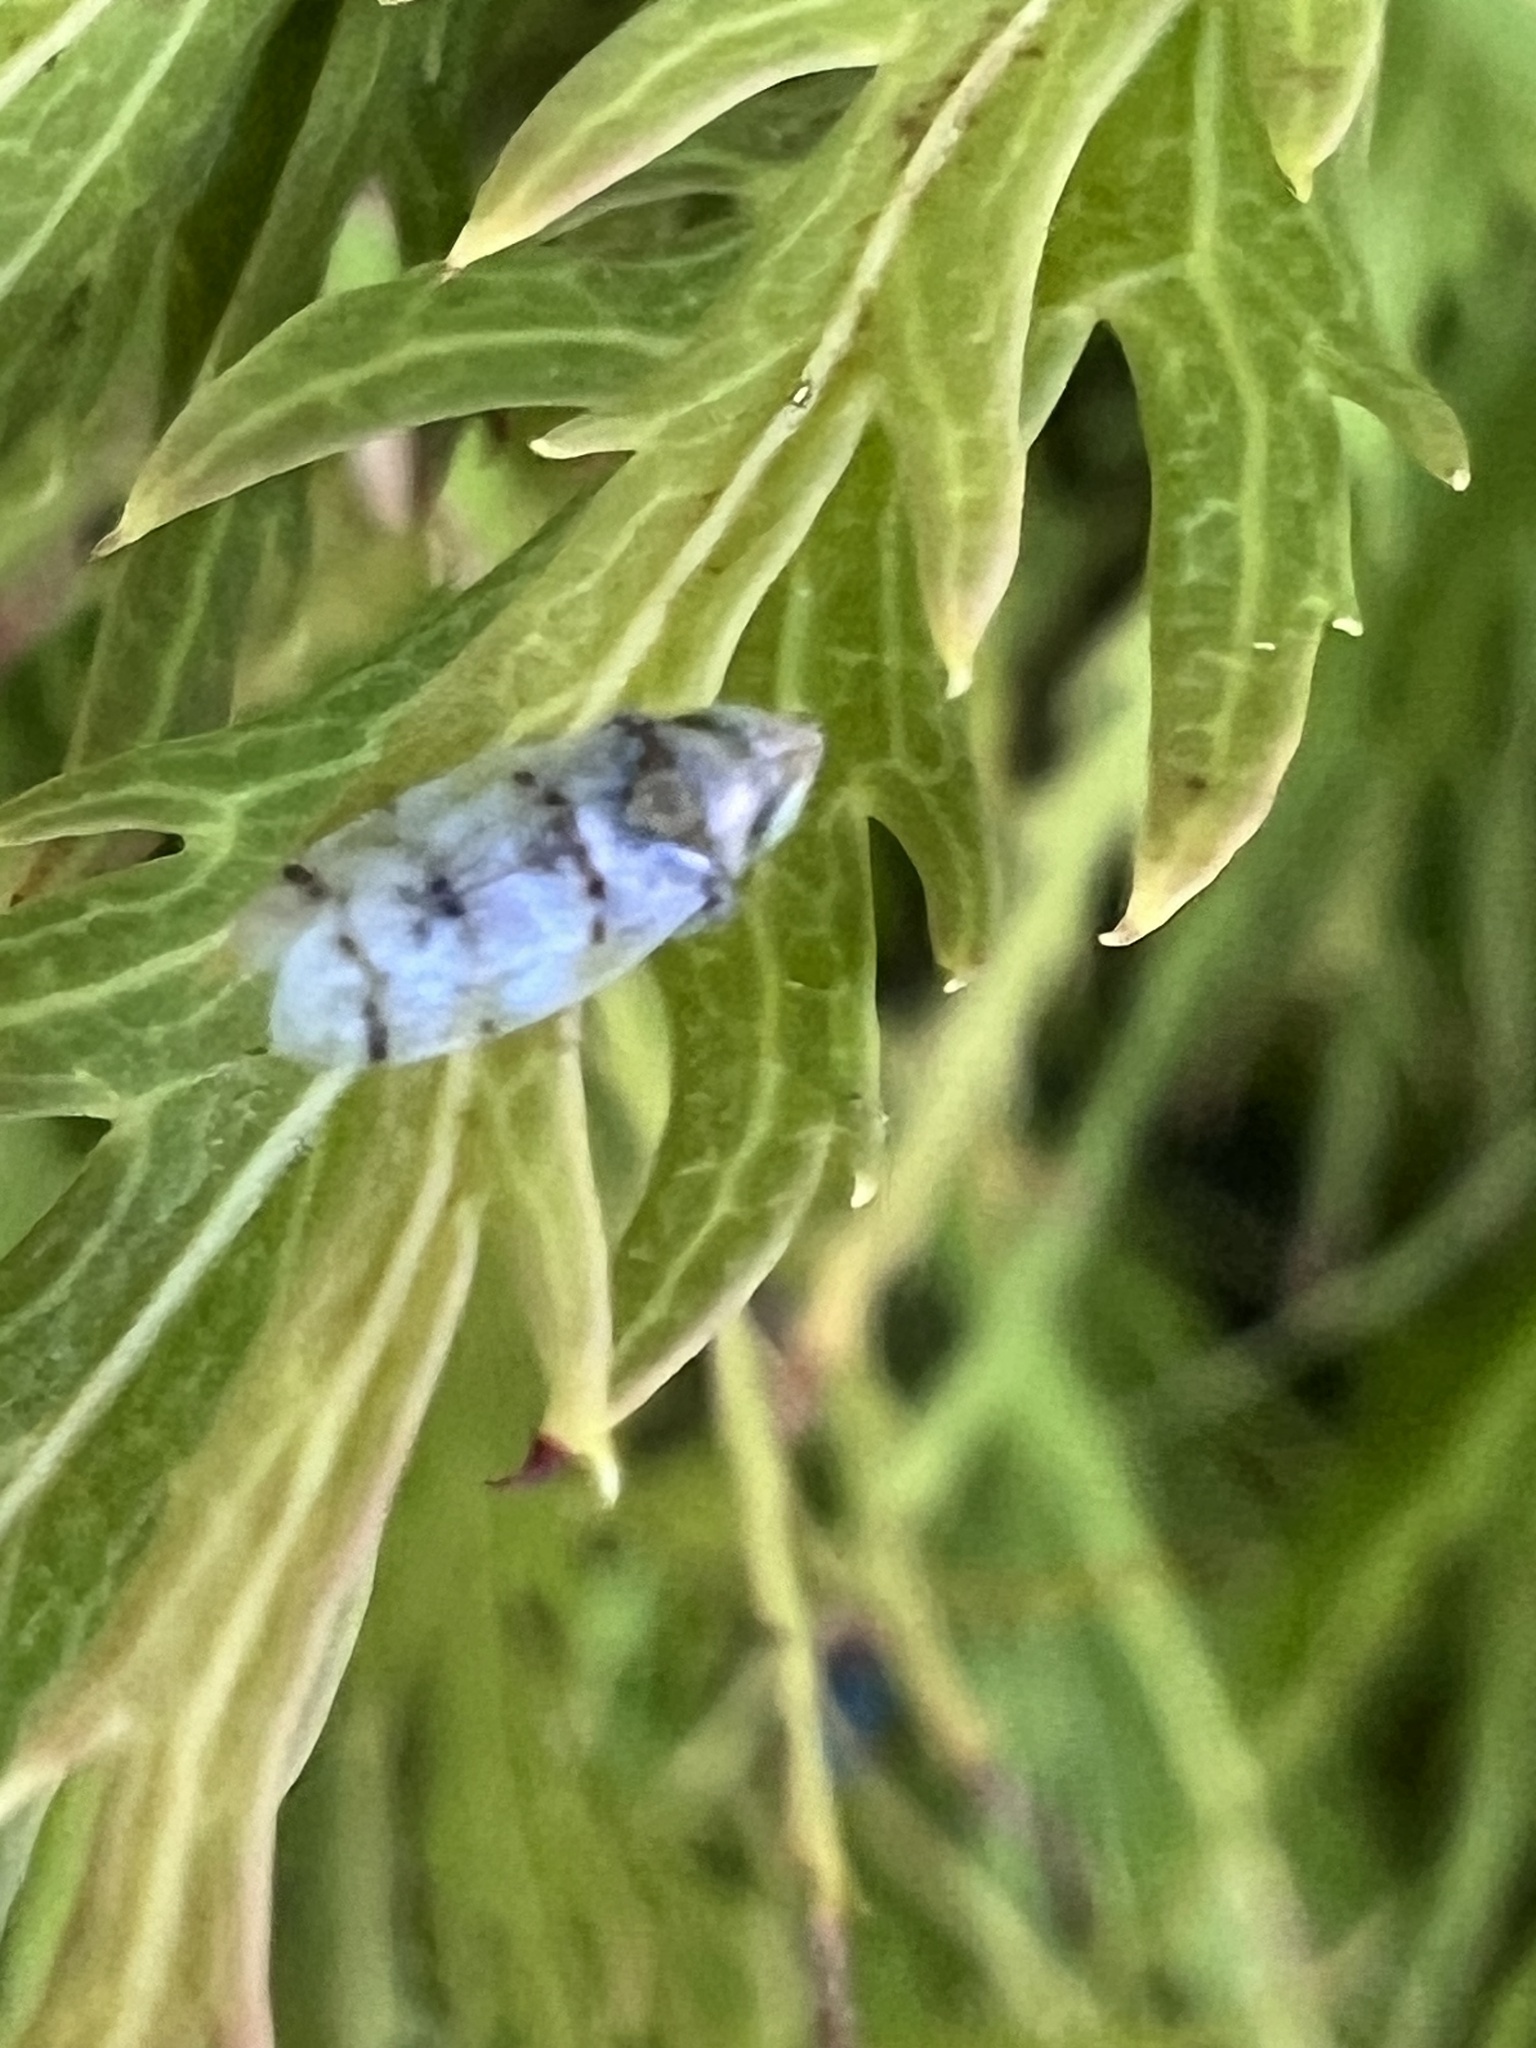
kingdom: Animalia
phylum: Arthropoda
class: Insecta
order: Hemiptera
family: Cicadellidae
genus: Japananus
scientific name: Japananus hyalinus
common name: The japanese maple leafhopper
